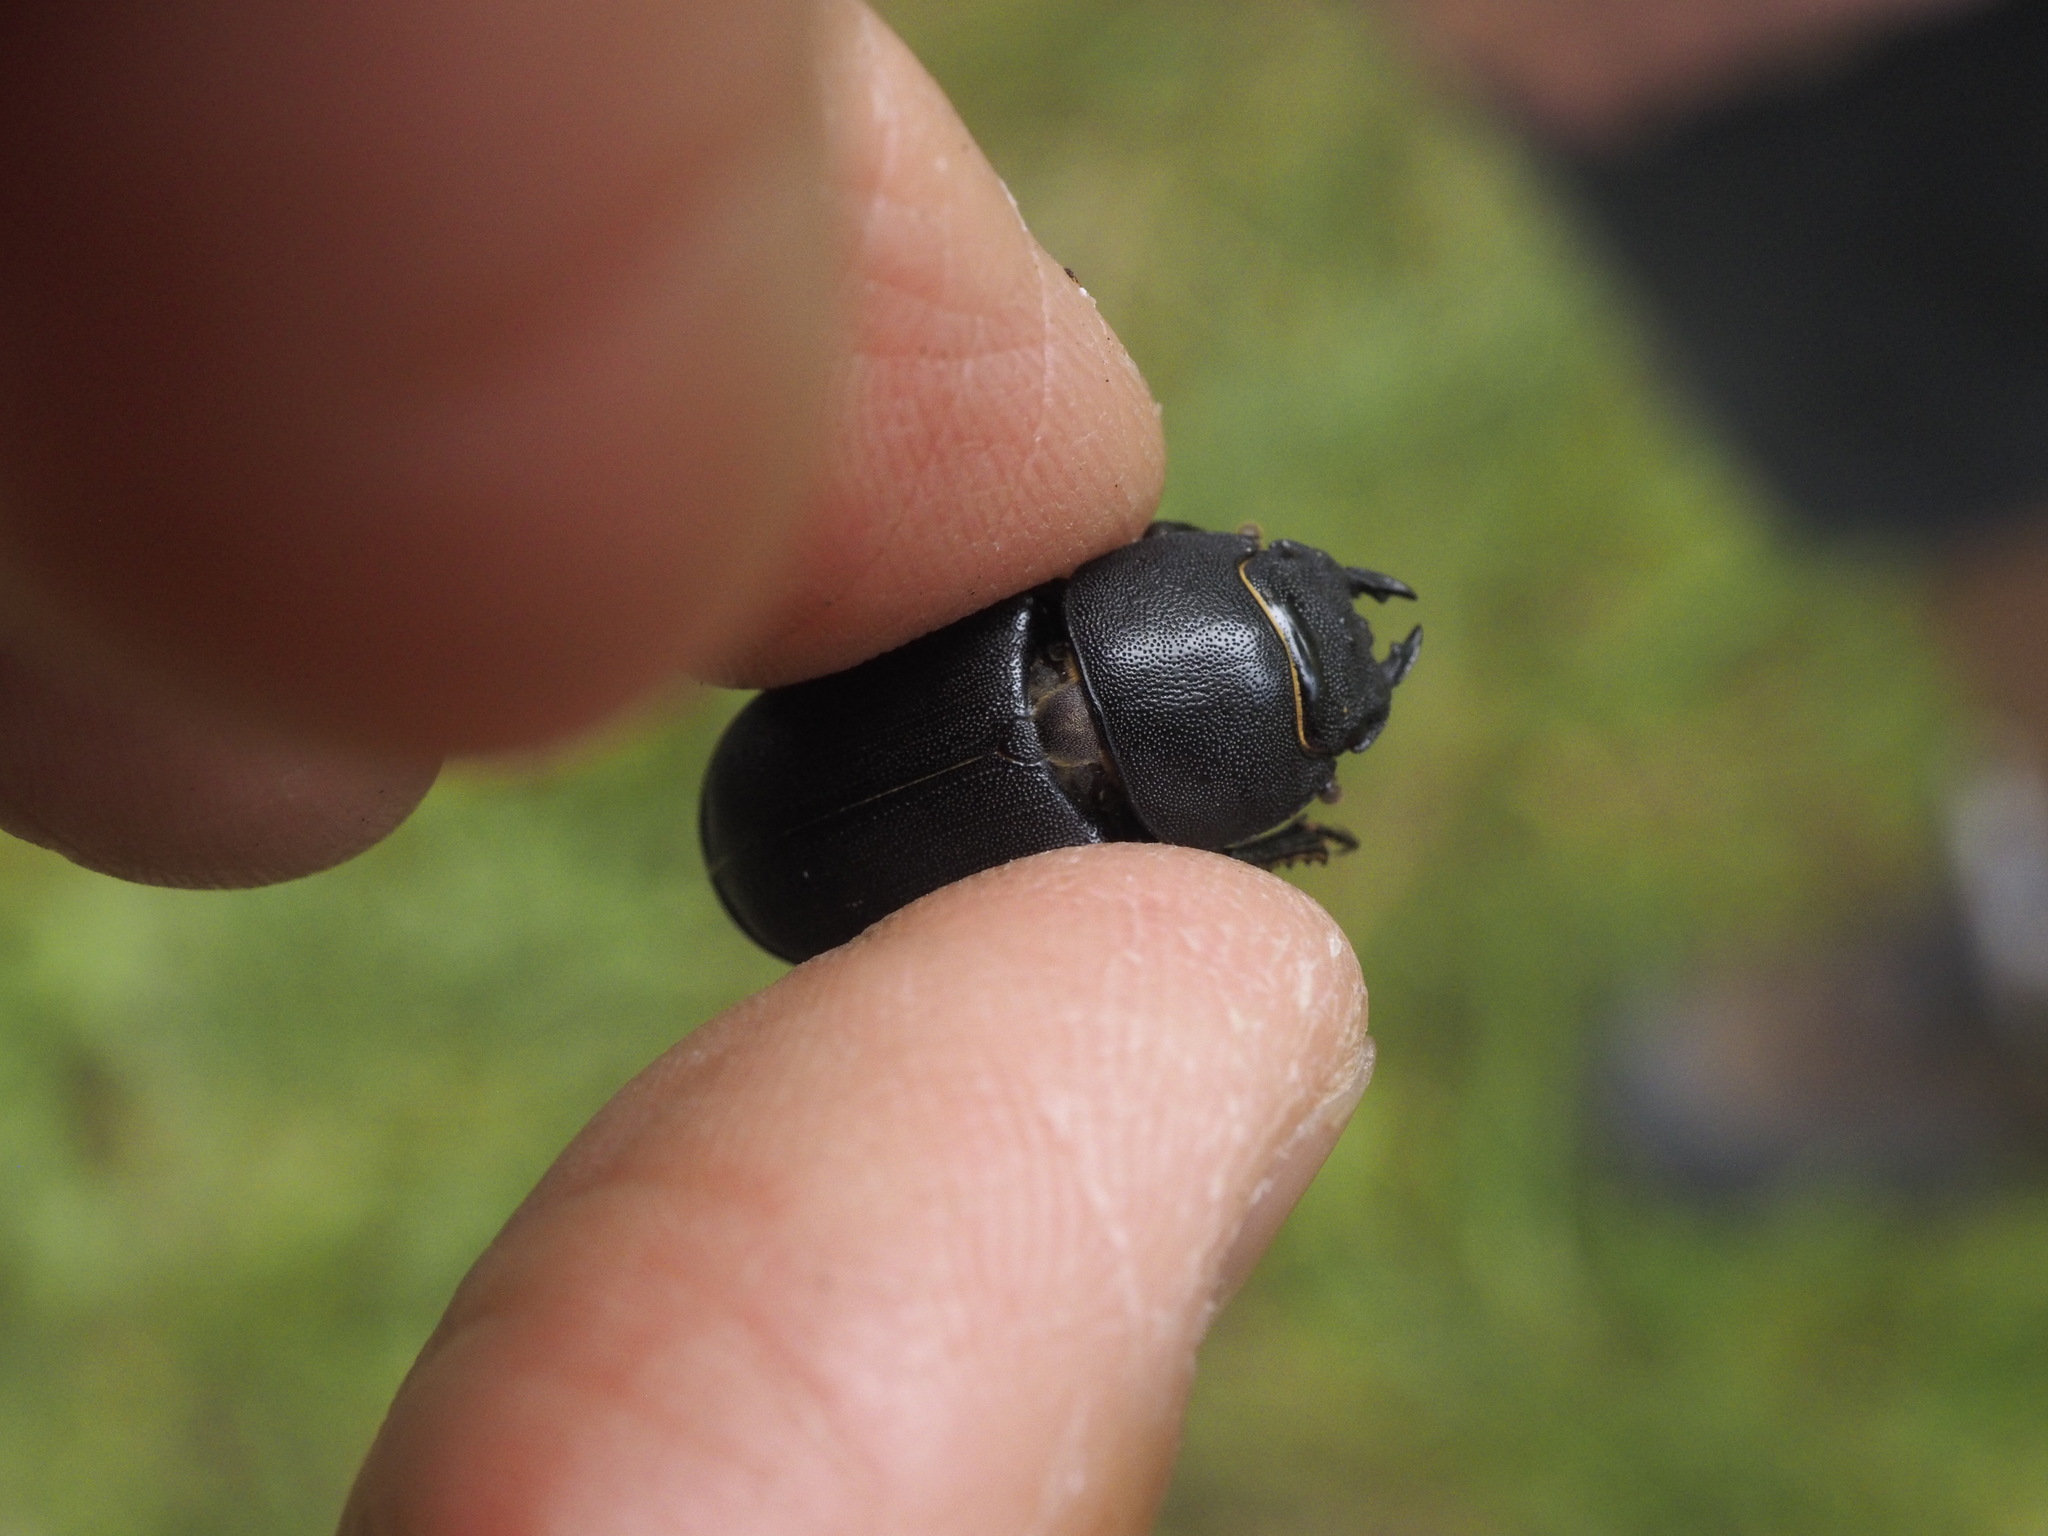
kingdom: Animalia
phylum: Arthropoda
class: Insecta
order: Coleoptera
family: Lucanidae
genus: Dorcus
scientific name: Dorcus parallelipipedus
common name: Lesser stag beetle
